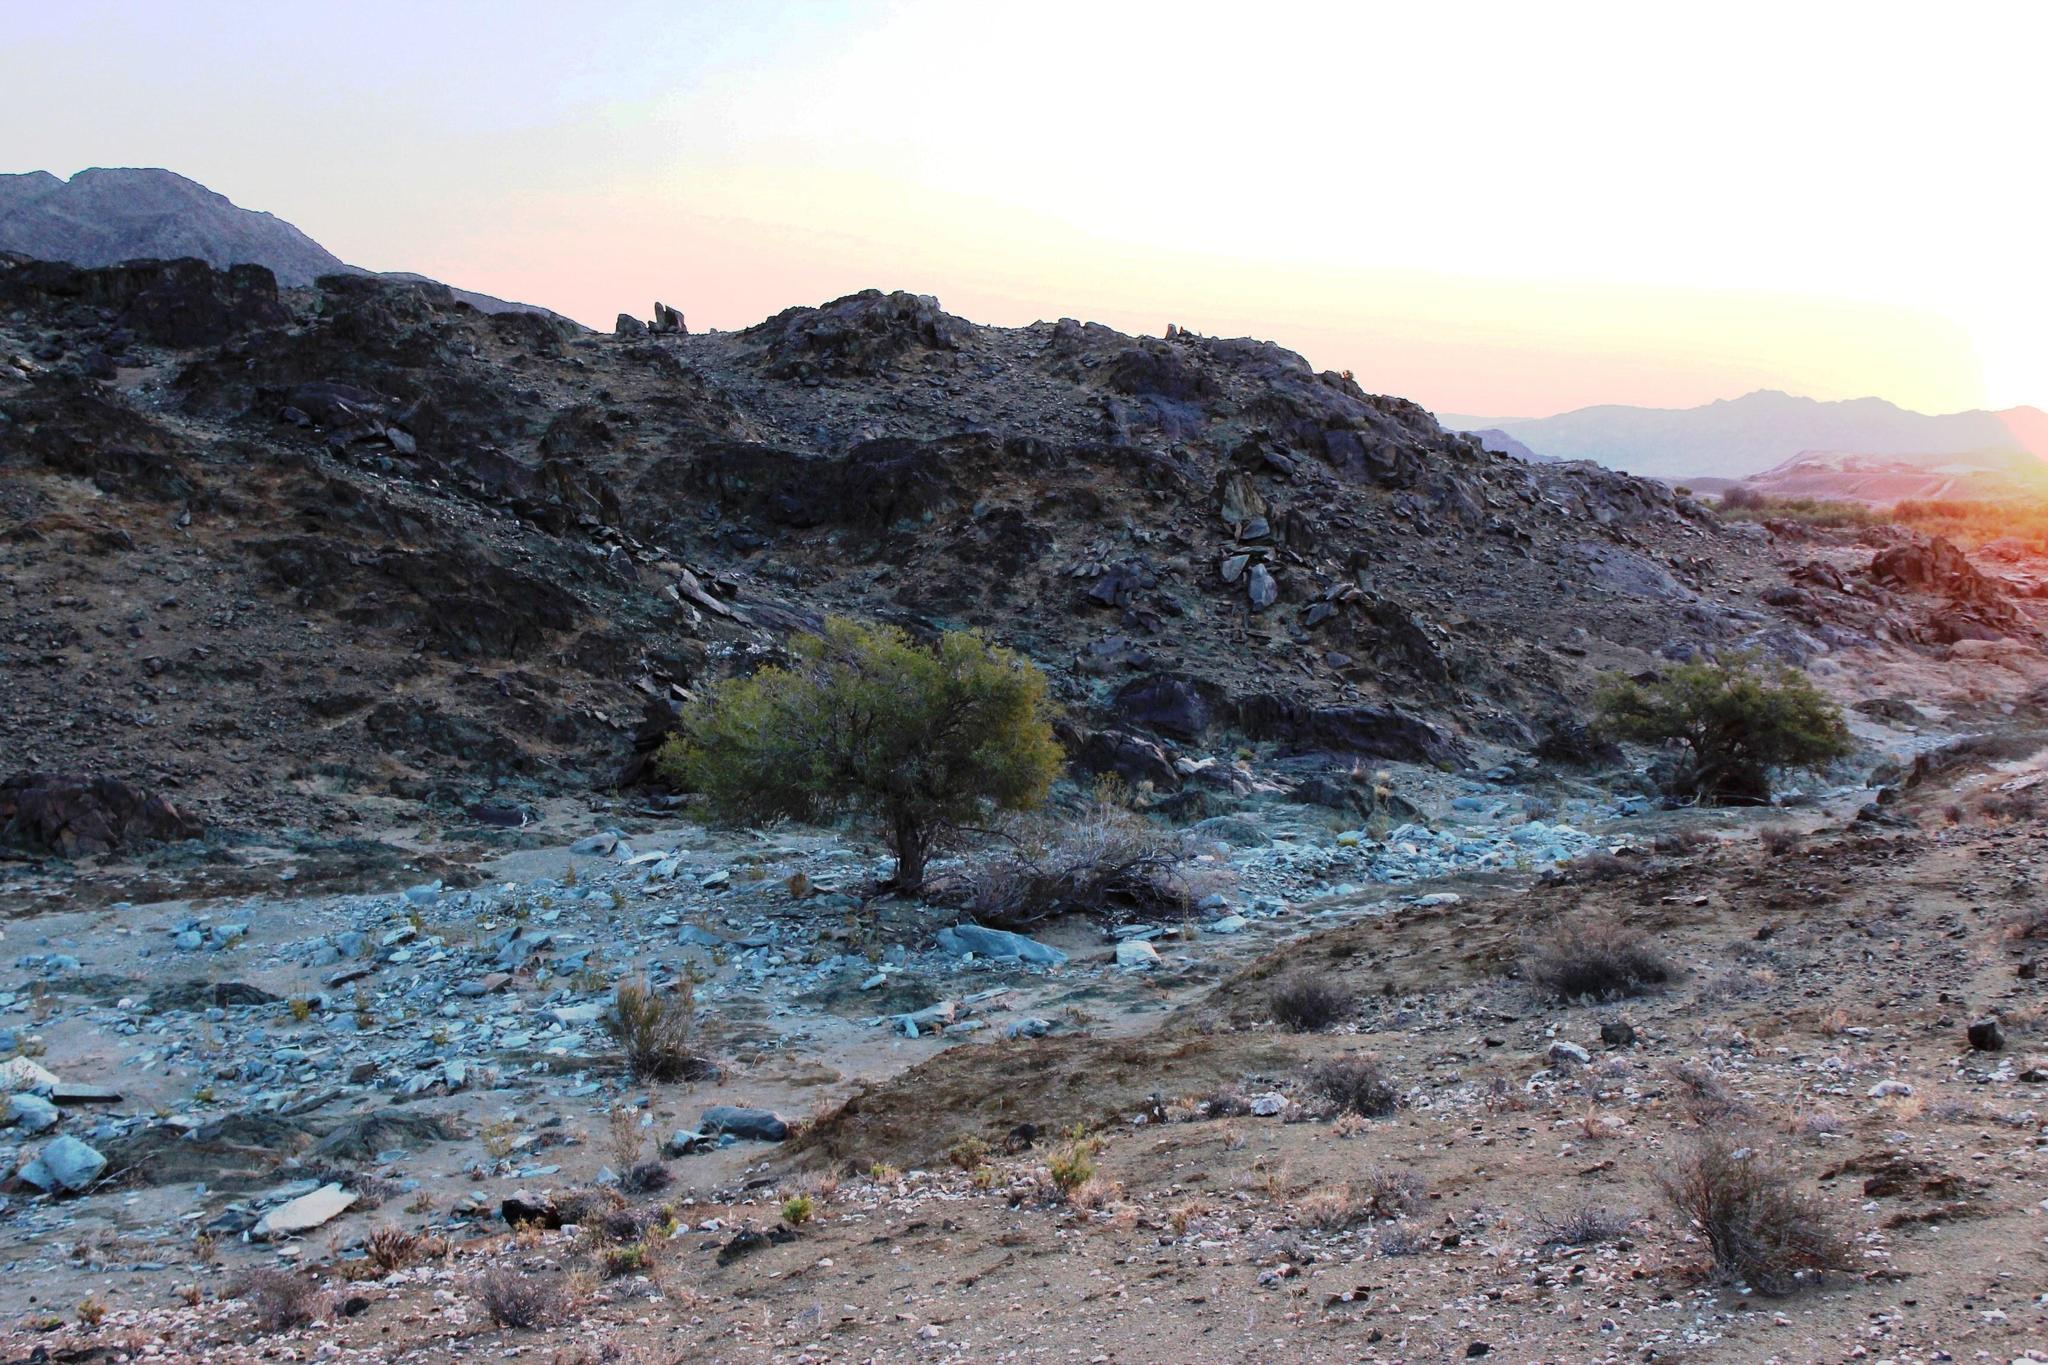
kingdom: Plantae
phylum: Tracheophyta
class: Magnoliopsida
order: Fabales
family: Fabaceae
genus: Schotia
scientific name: Schotia afra
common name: Hottentot's bean
